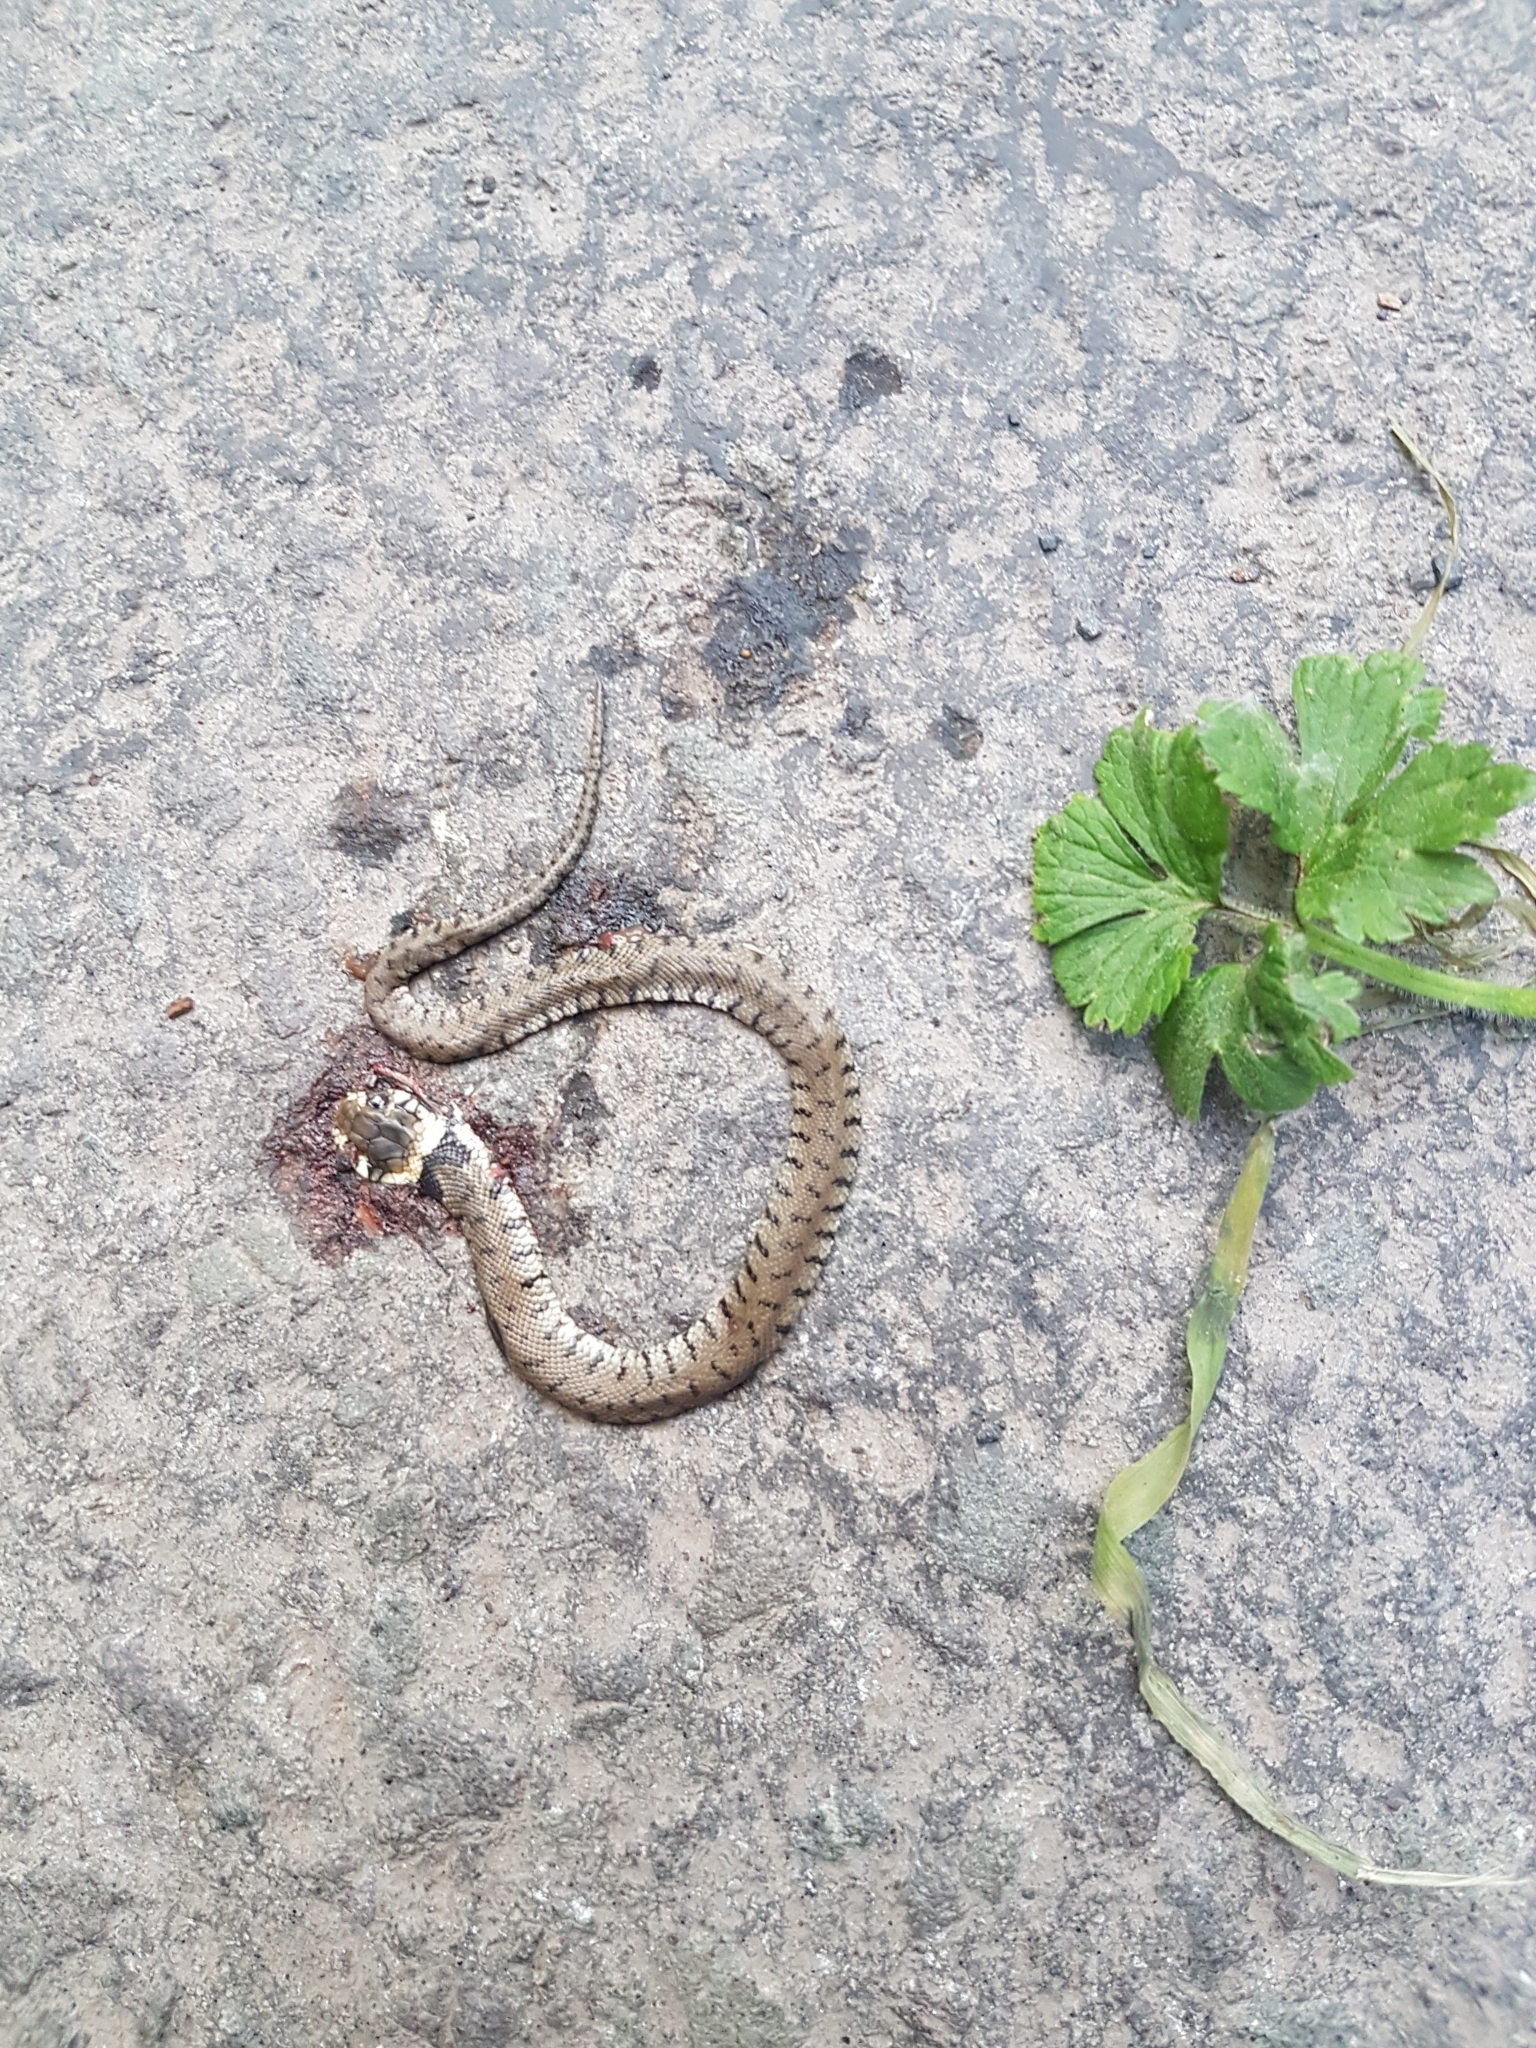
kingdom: Animalia
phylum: Chordata
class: Squamata
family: Colubridae
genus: Natrix
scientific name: Natrix helvetica
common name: Banded grass snake
